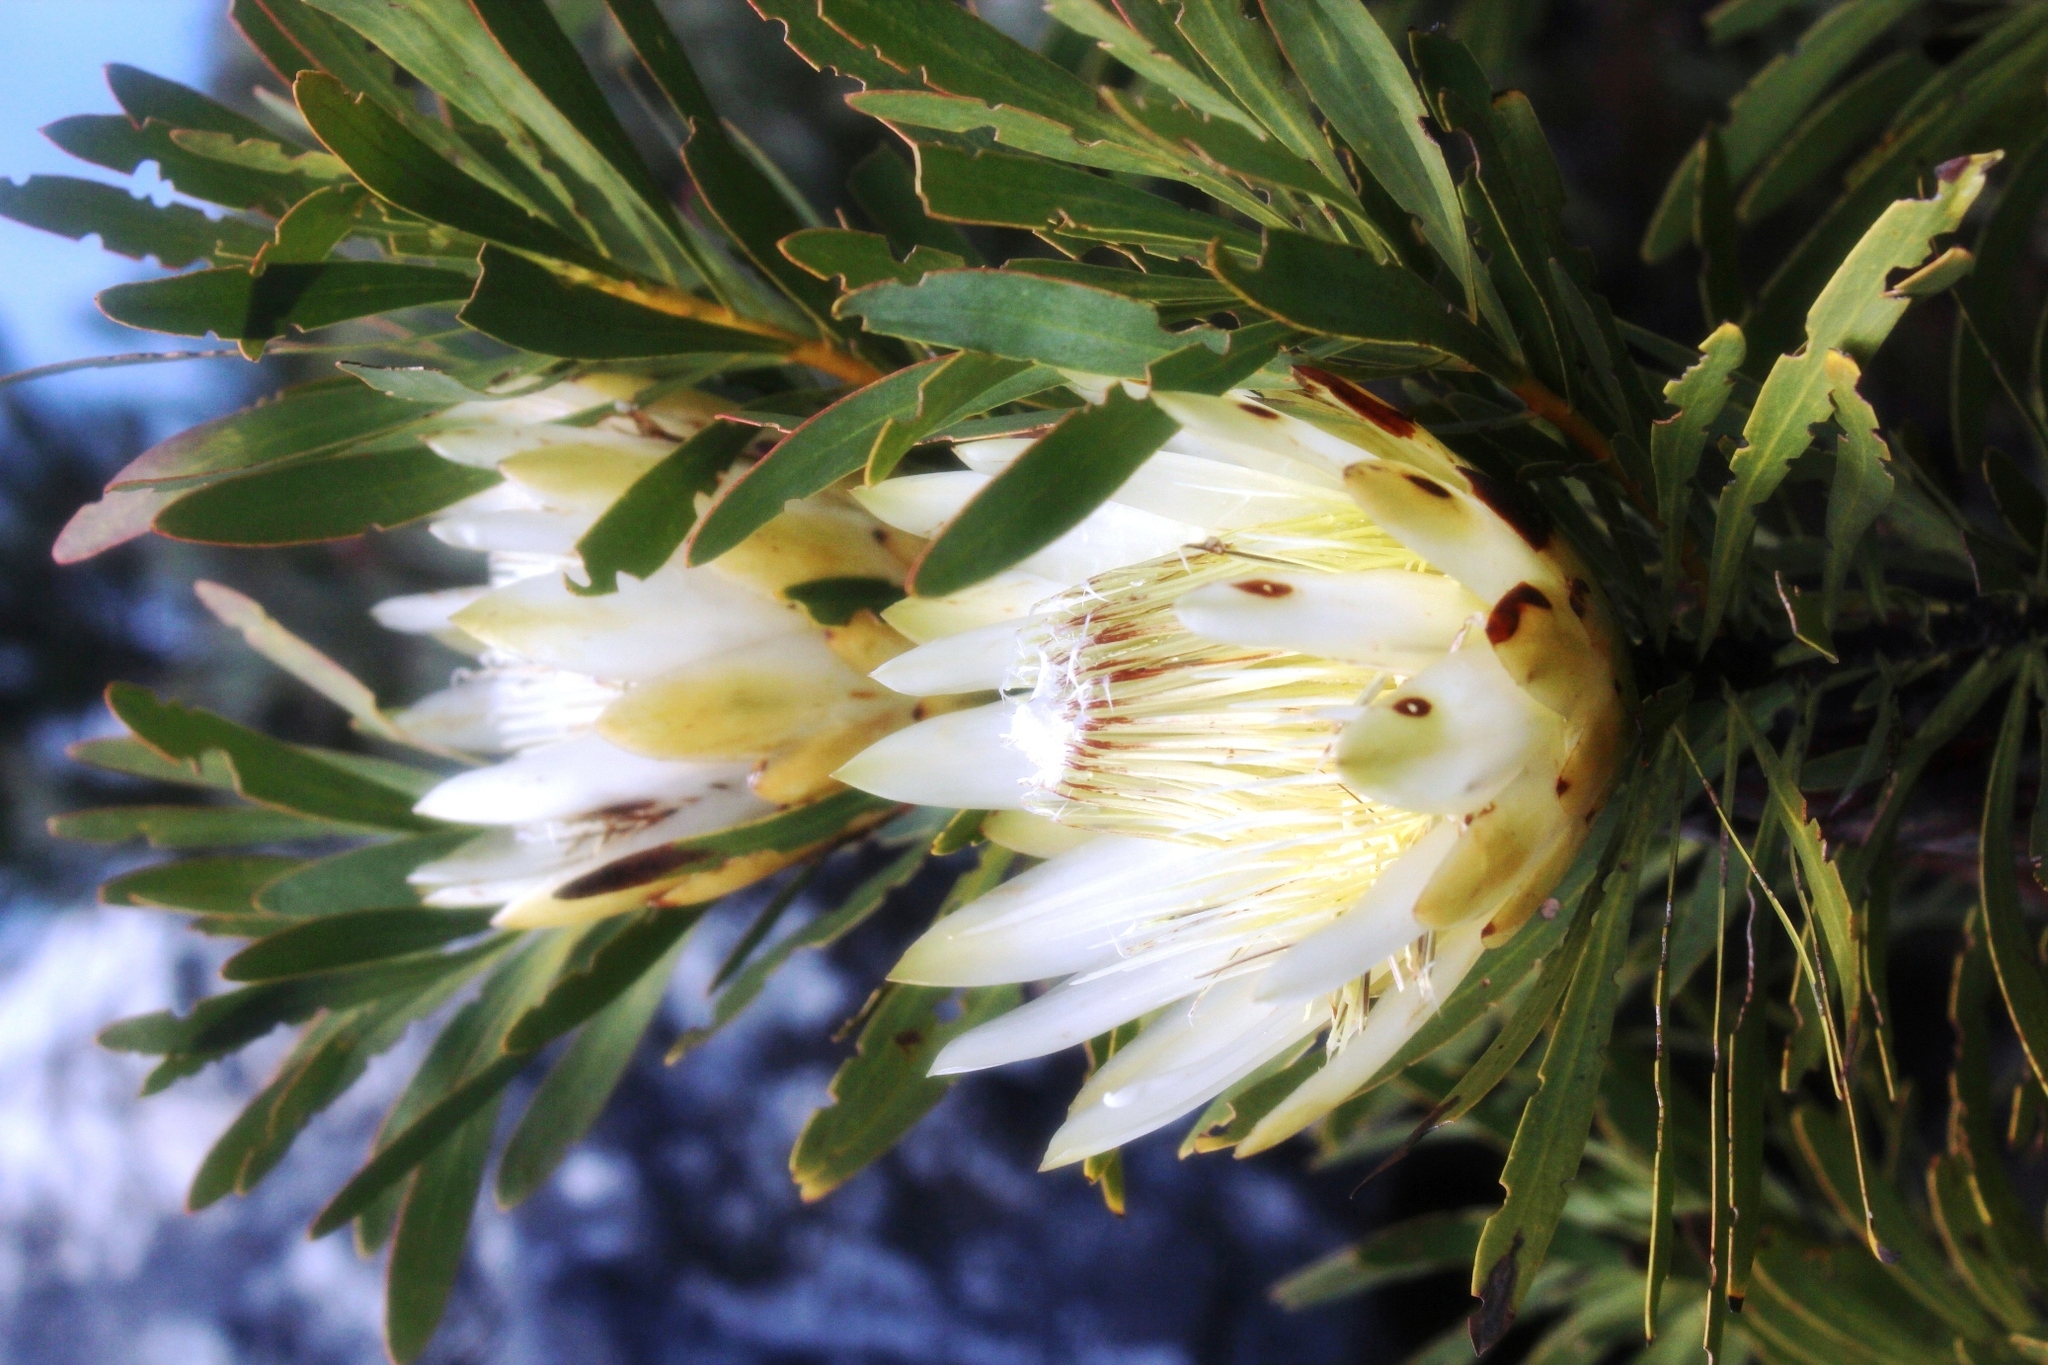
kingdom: Plantae
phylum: Tracheophyta
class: Magnoliopsida
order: Proteales
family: Proteaceae
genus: Protea
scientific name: Protea repens
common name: Sugarbush
